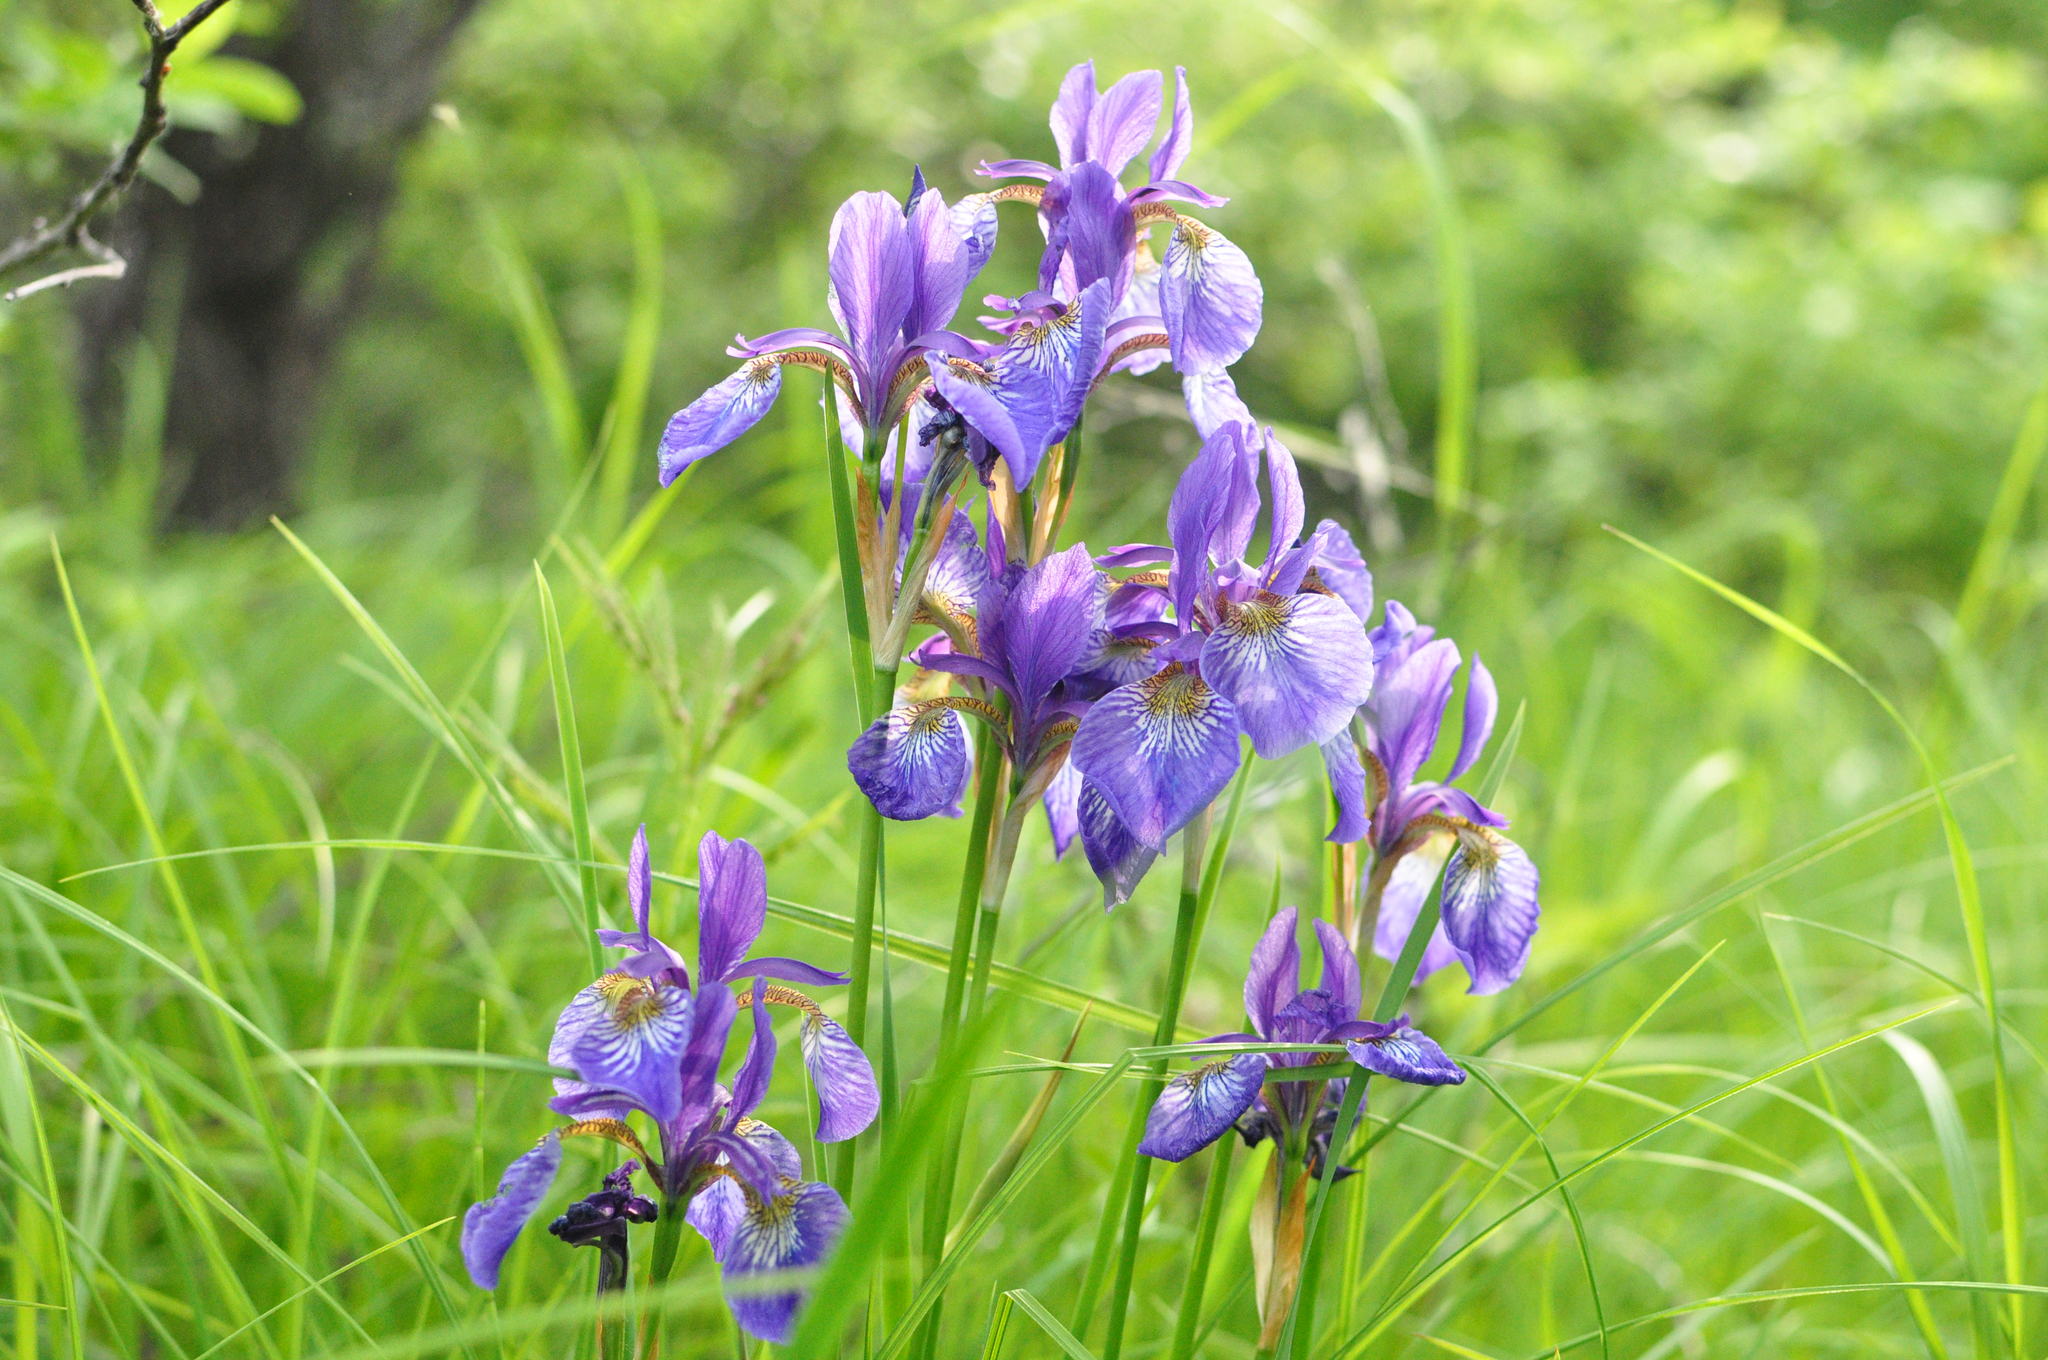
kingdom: Plantae
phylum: Tracheophyta
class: Liliopsida
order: Asparagales
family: Iridaceae
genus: Iris
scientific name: Iris sanguinea
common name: Blood iris
